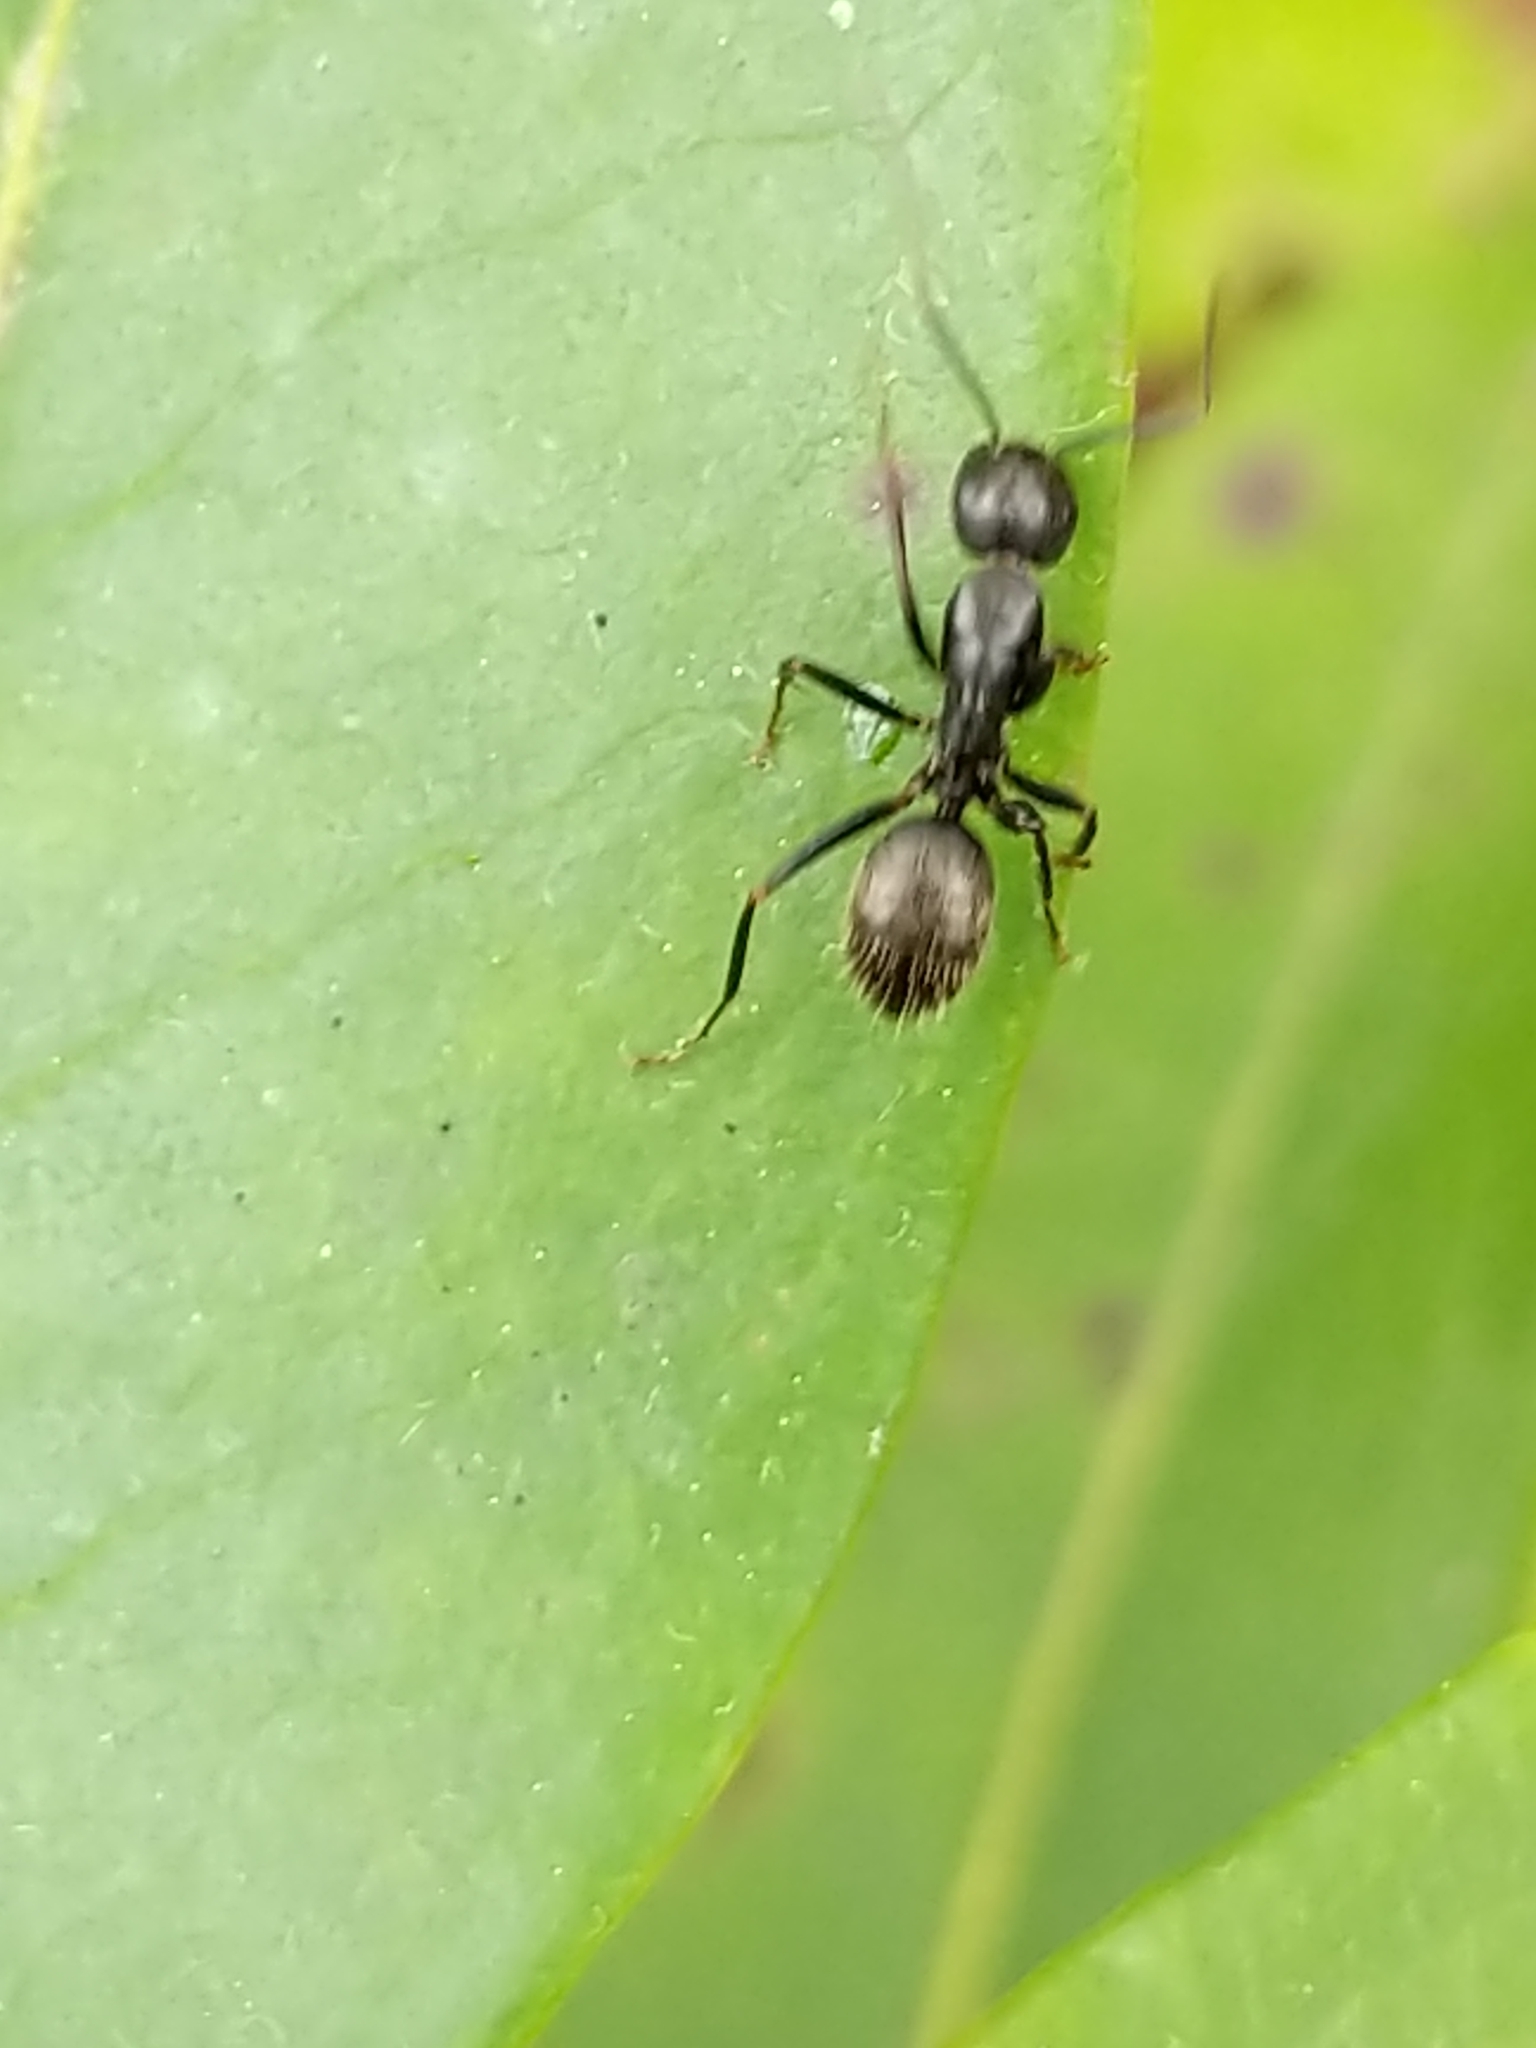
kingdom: Animalia
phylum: Arthropoda
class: Insecta
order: Hymenoptera
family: Formicidae
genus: Camponotus
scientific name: Camponotus pennsylvanicus
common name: Black carpenter ant
